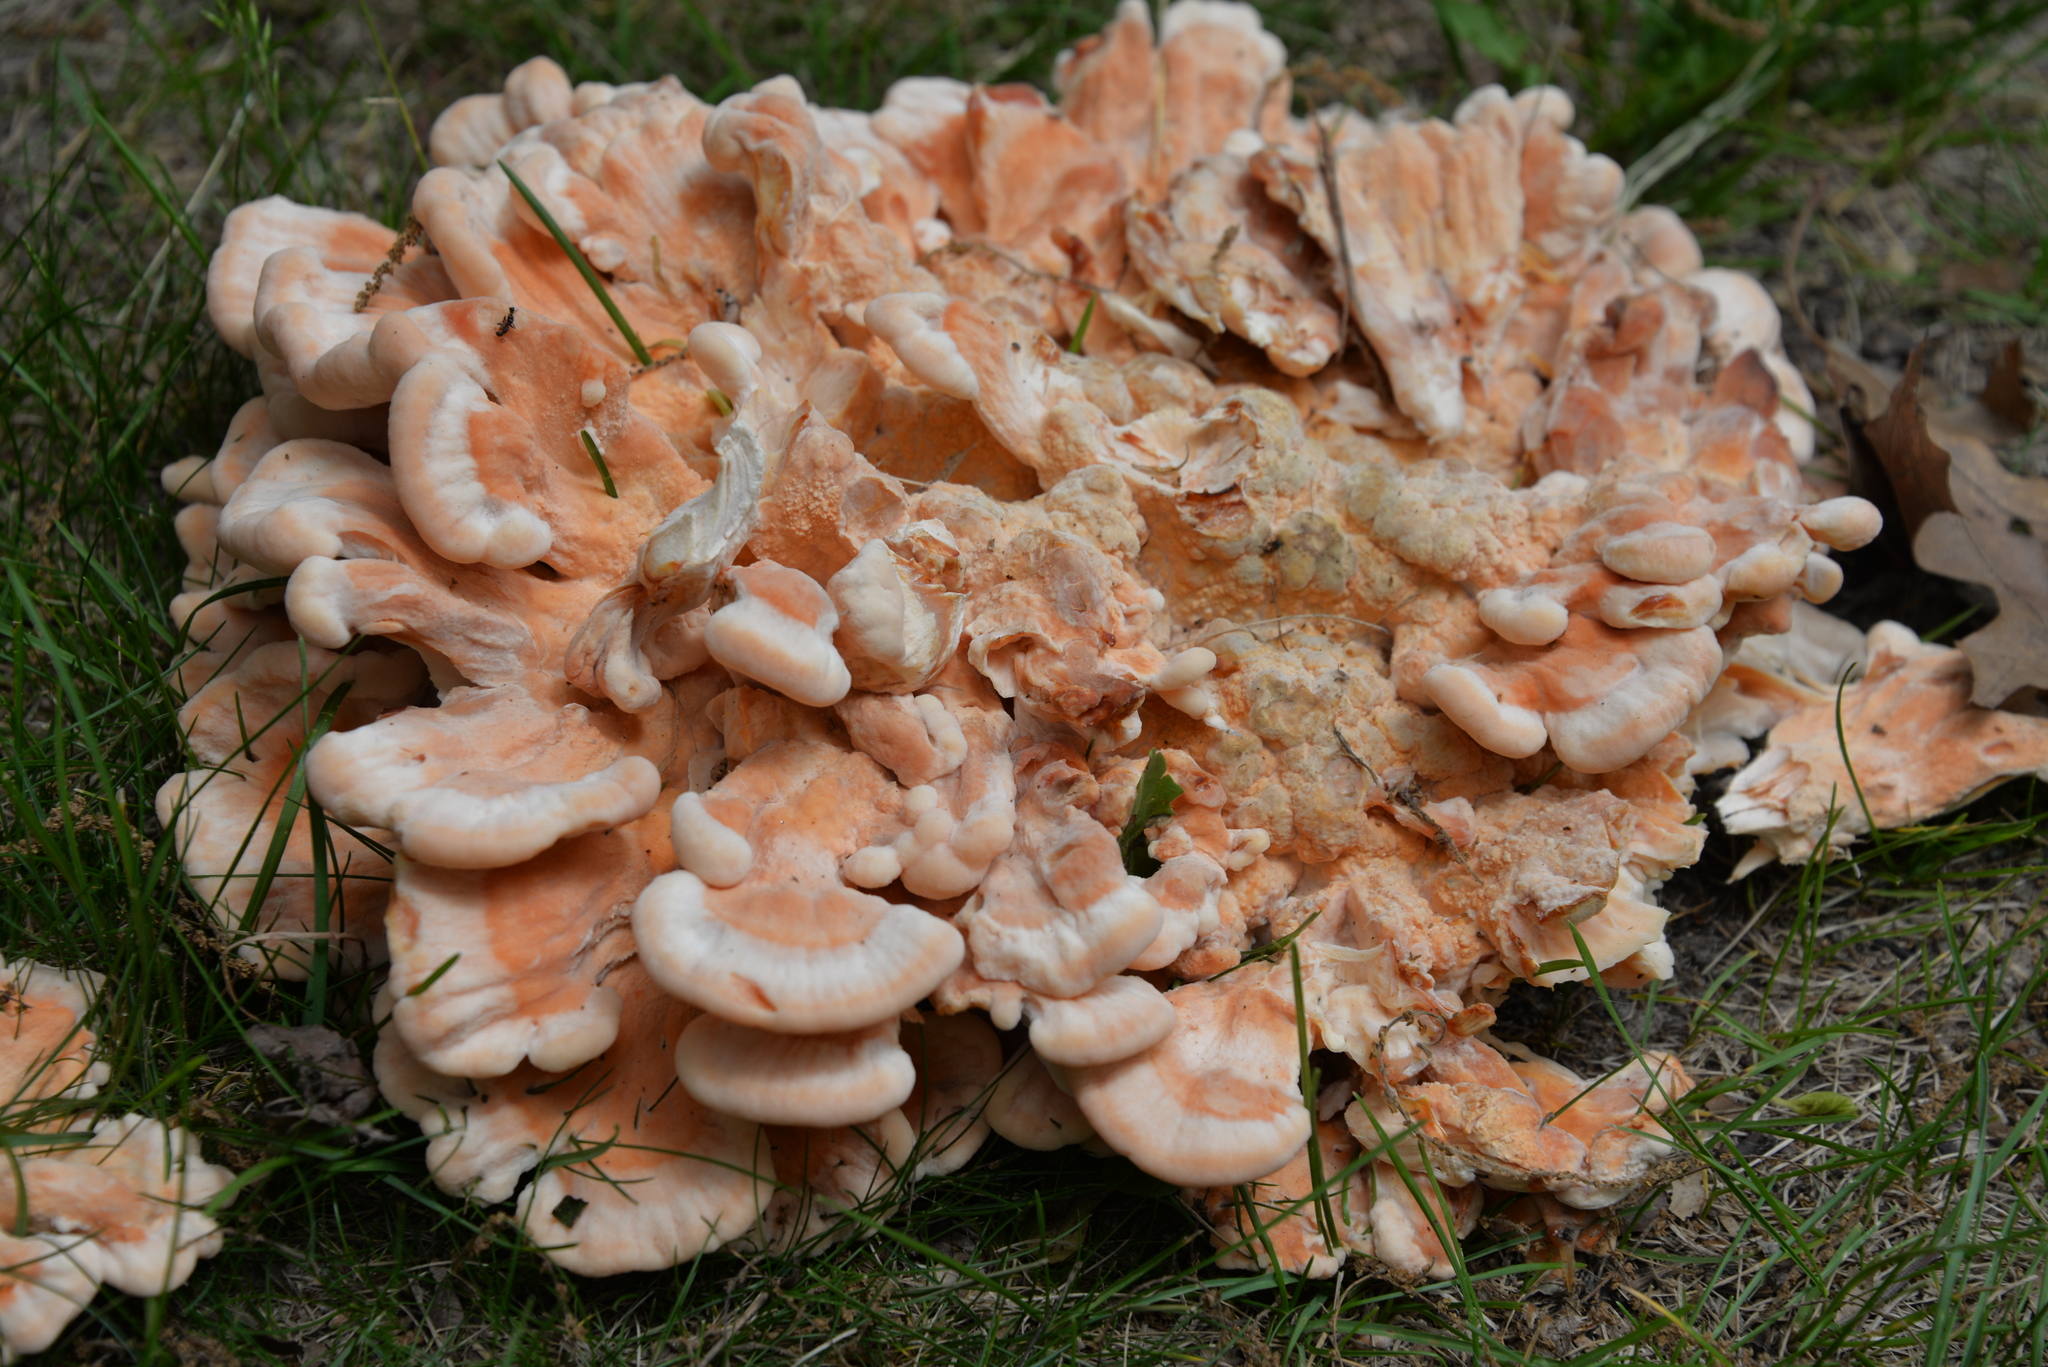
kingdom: Fungi
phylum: Basidiomycota
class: Agaricomycetes
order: Polyporales
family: Laetiporaceae
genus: Laetiporus
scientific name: Laetiporus sulphureus
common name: Chicken of the woods
